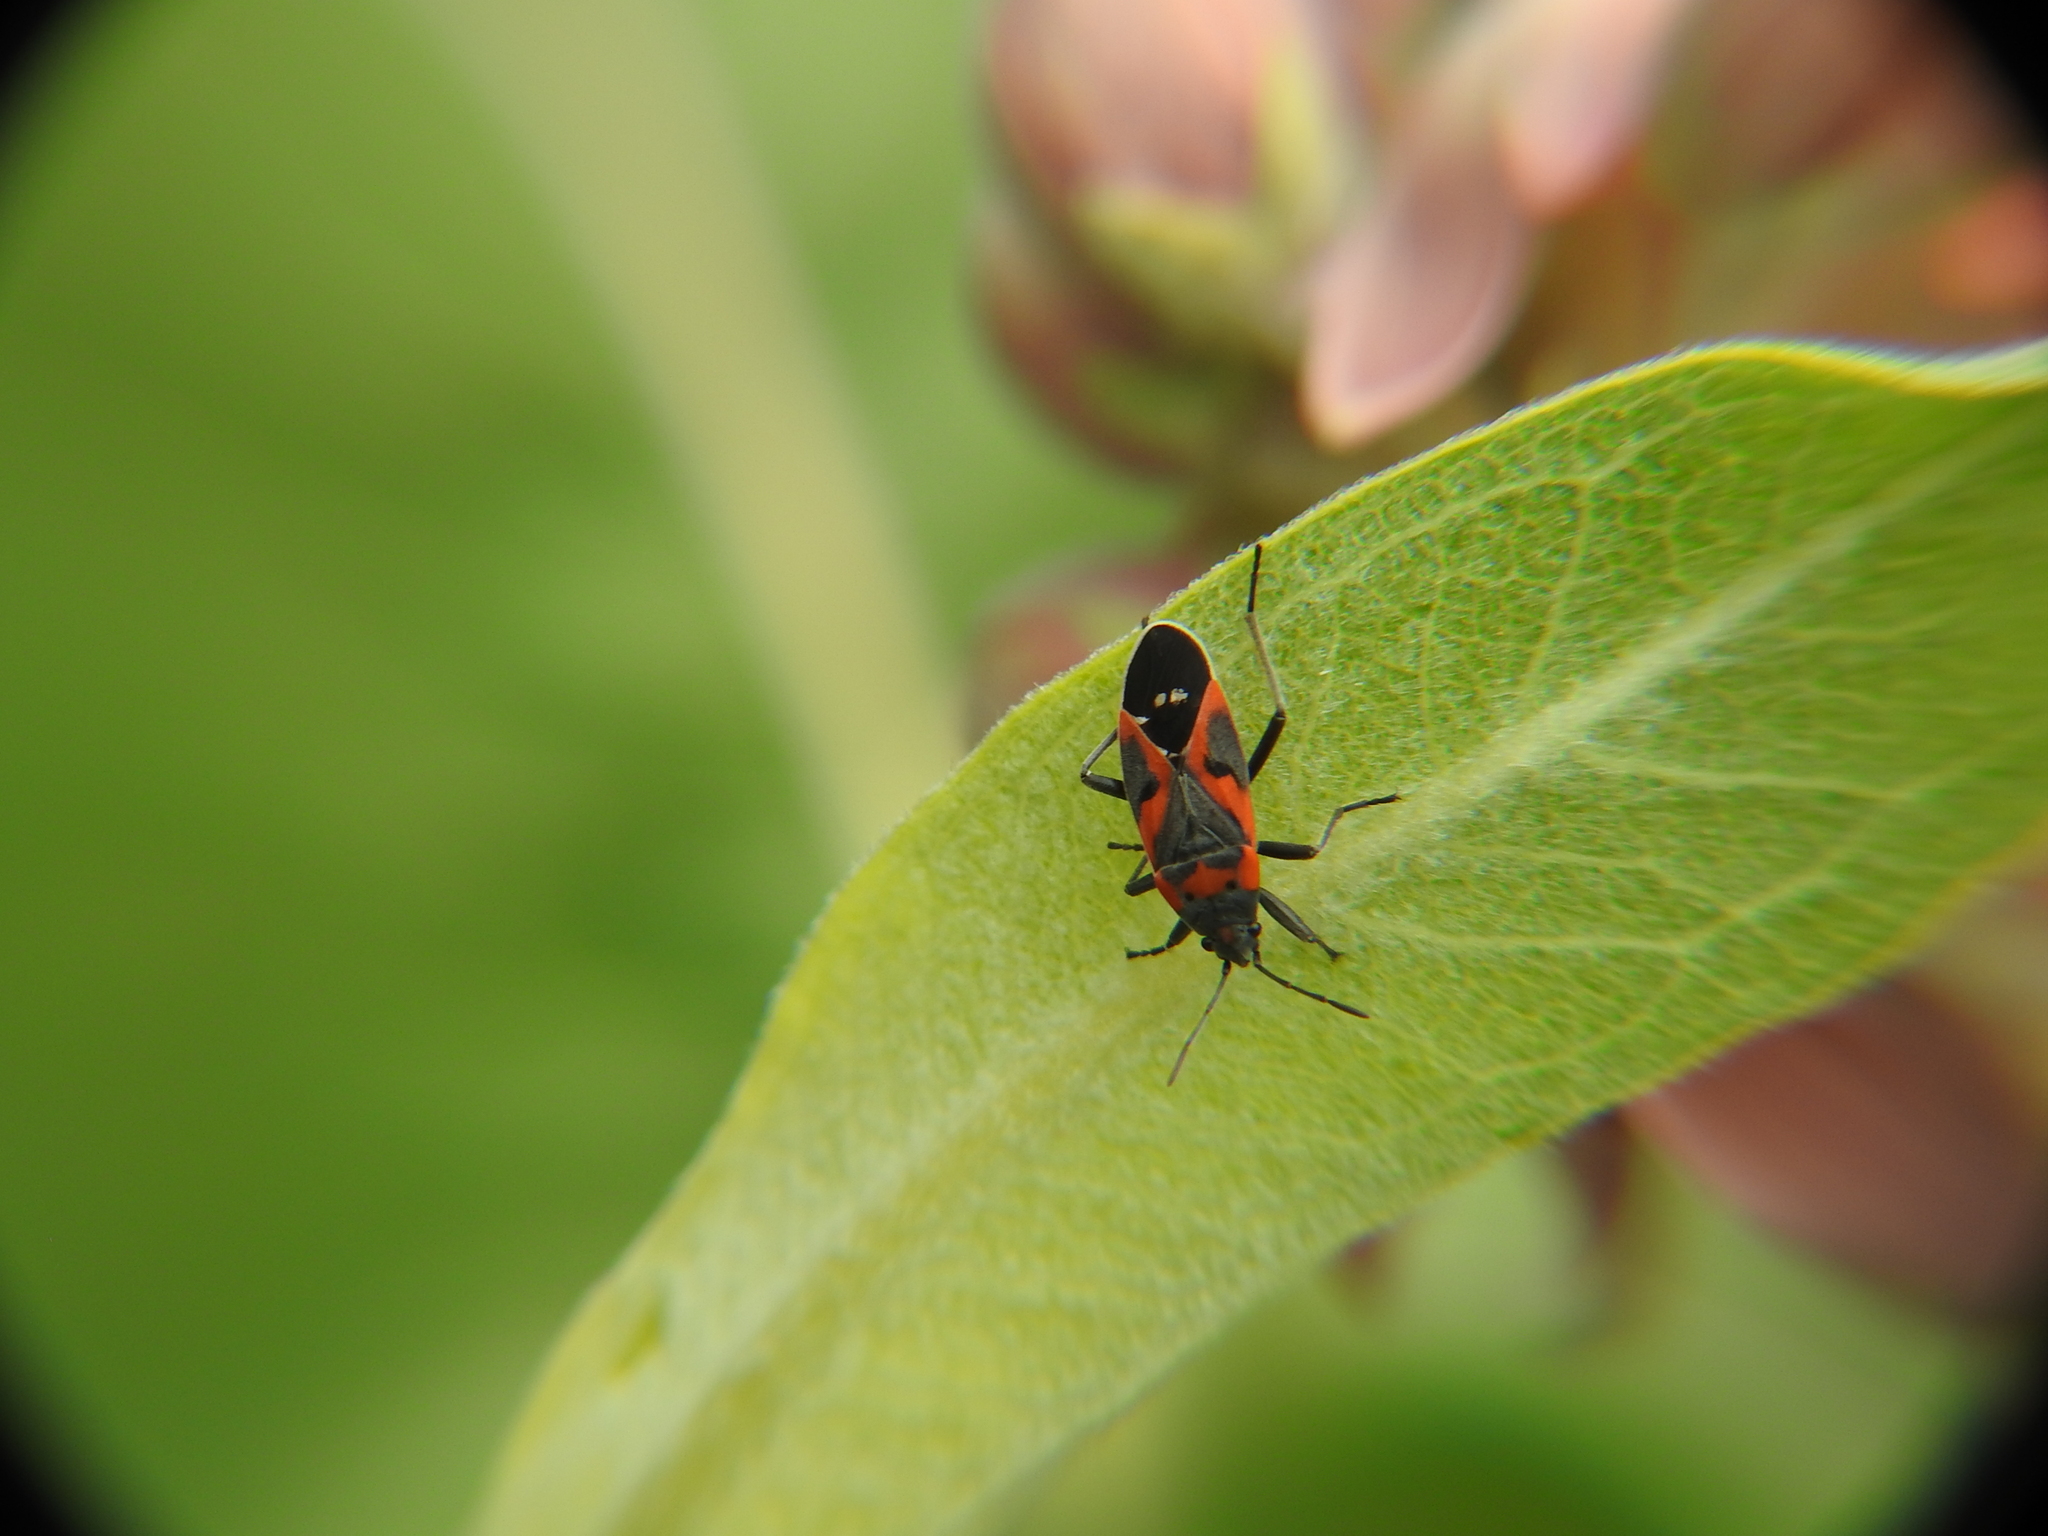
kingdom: Animalia
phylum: Arthropoda
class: Insecta
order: Hemiptera
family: Lygaeidae
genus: Lygaeus
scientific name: Lygaeus kalmii
